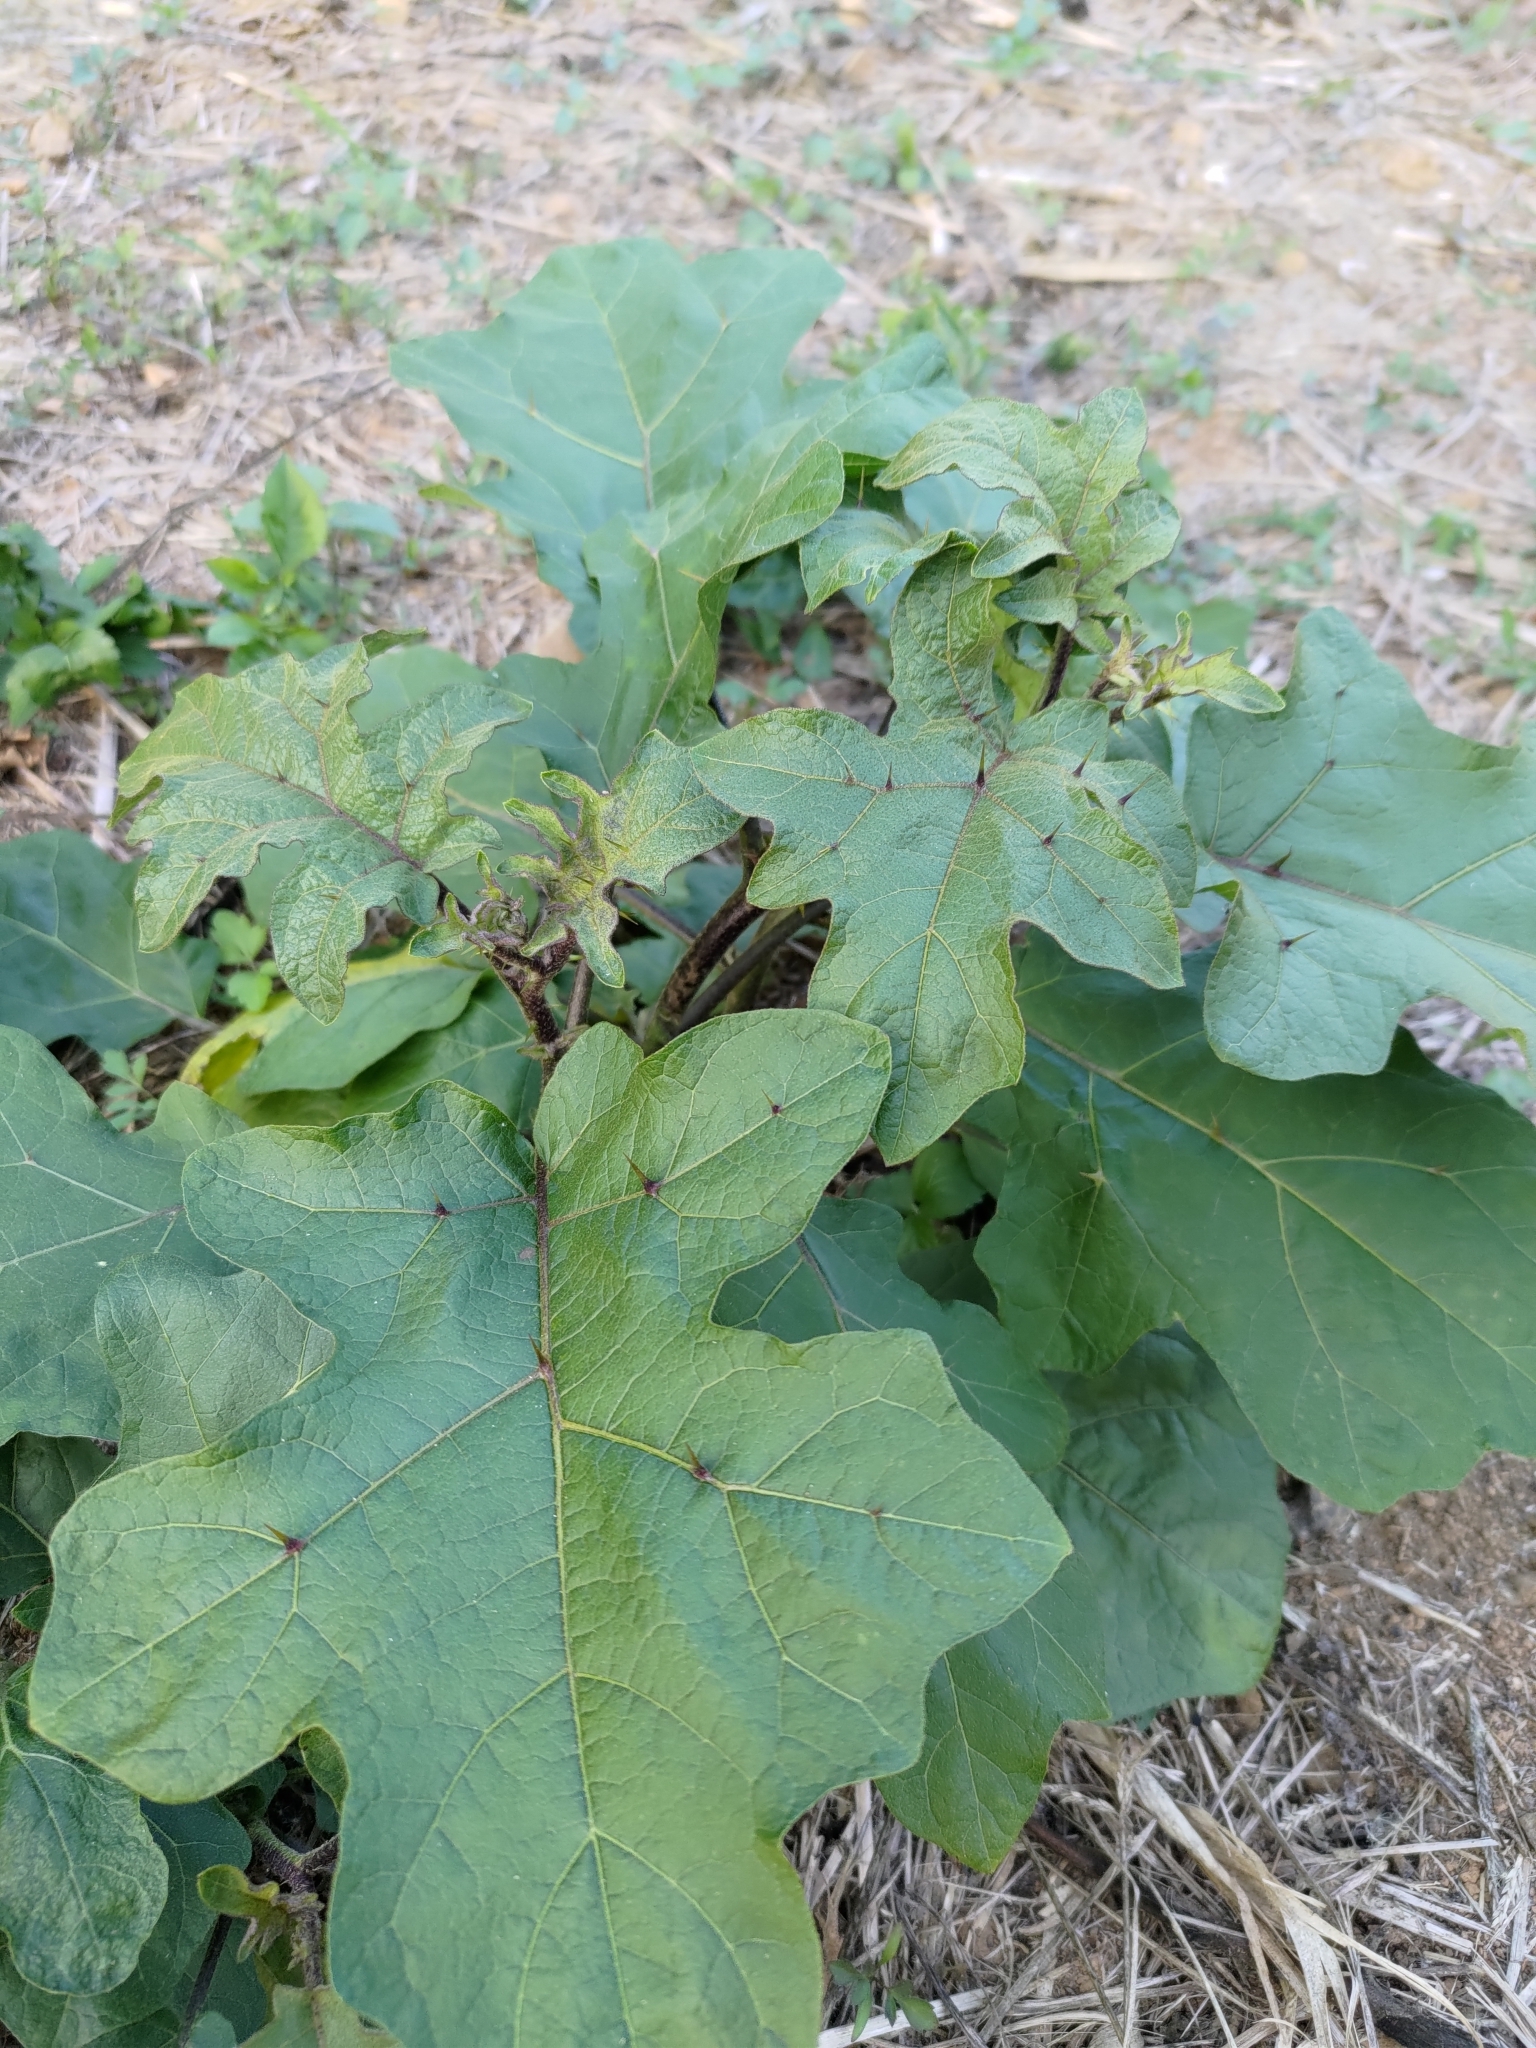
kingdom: Plantae
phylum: Tracheophyta
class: Magnoliopsida
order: Solanales
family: Solanaceae
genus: Solanum
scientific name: Solanum violaceum
